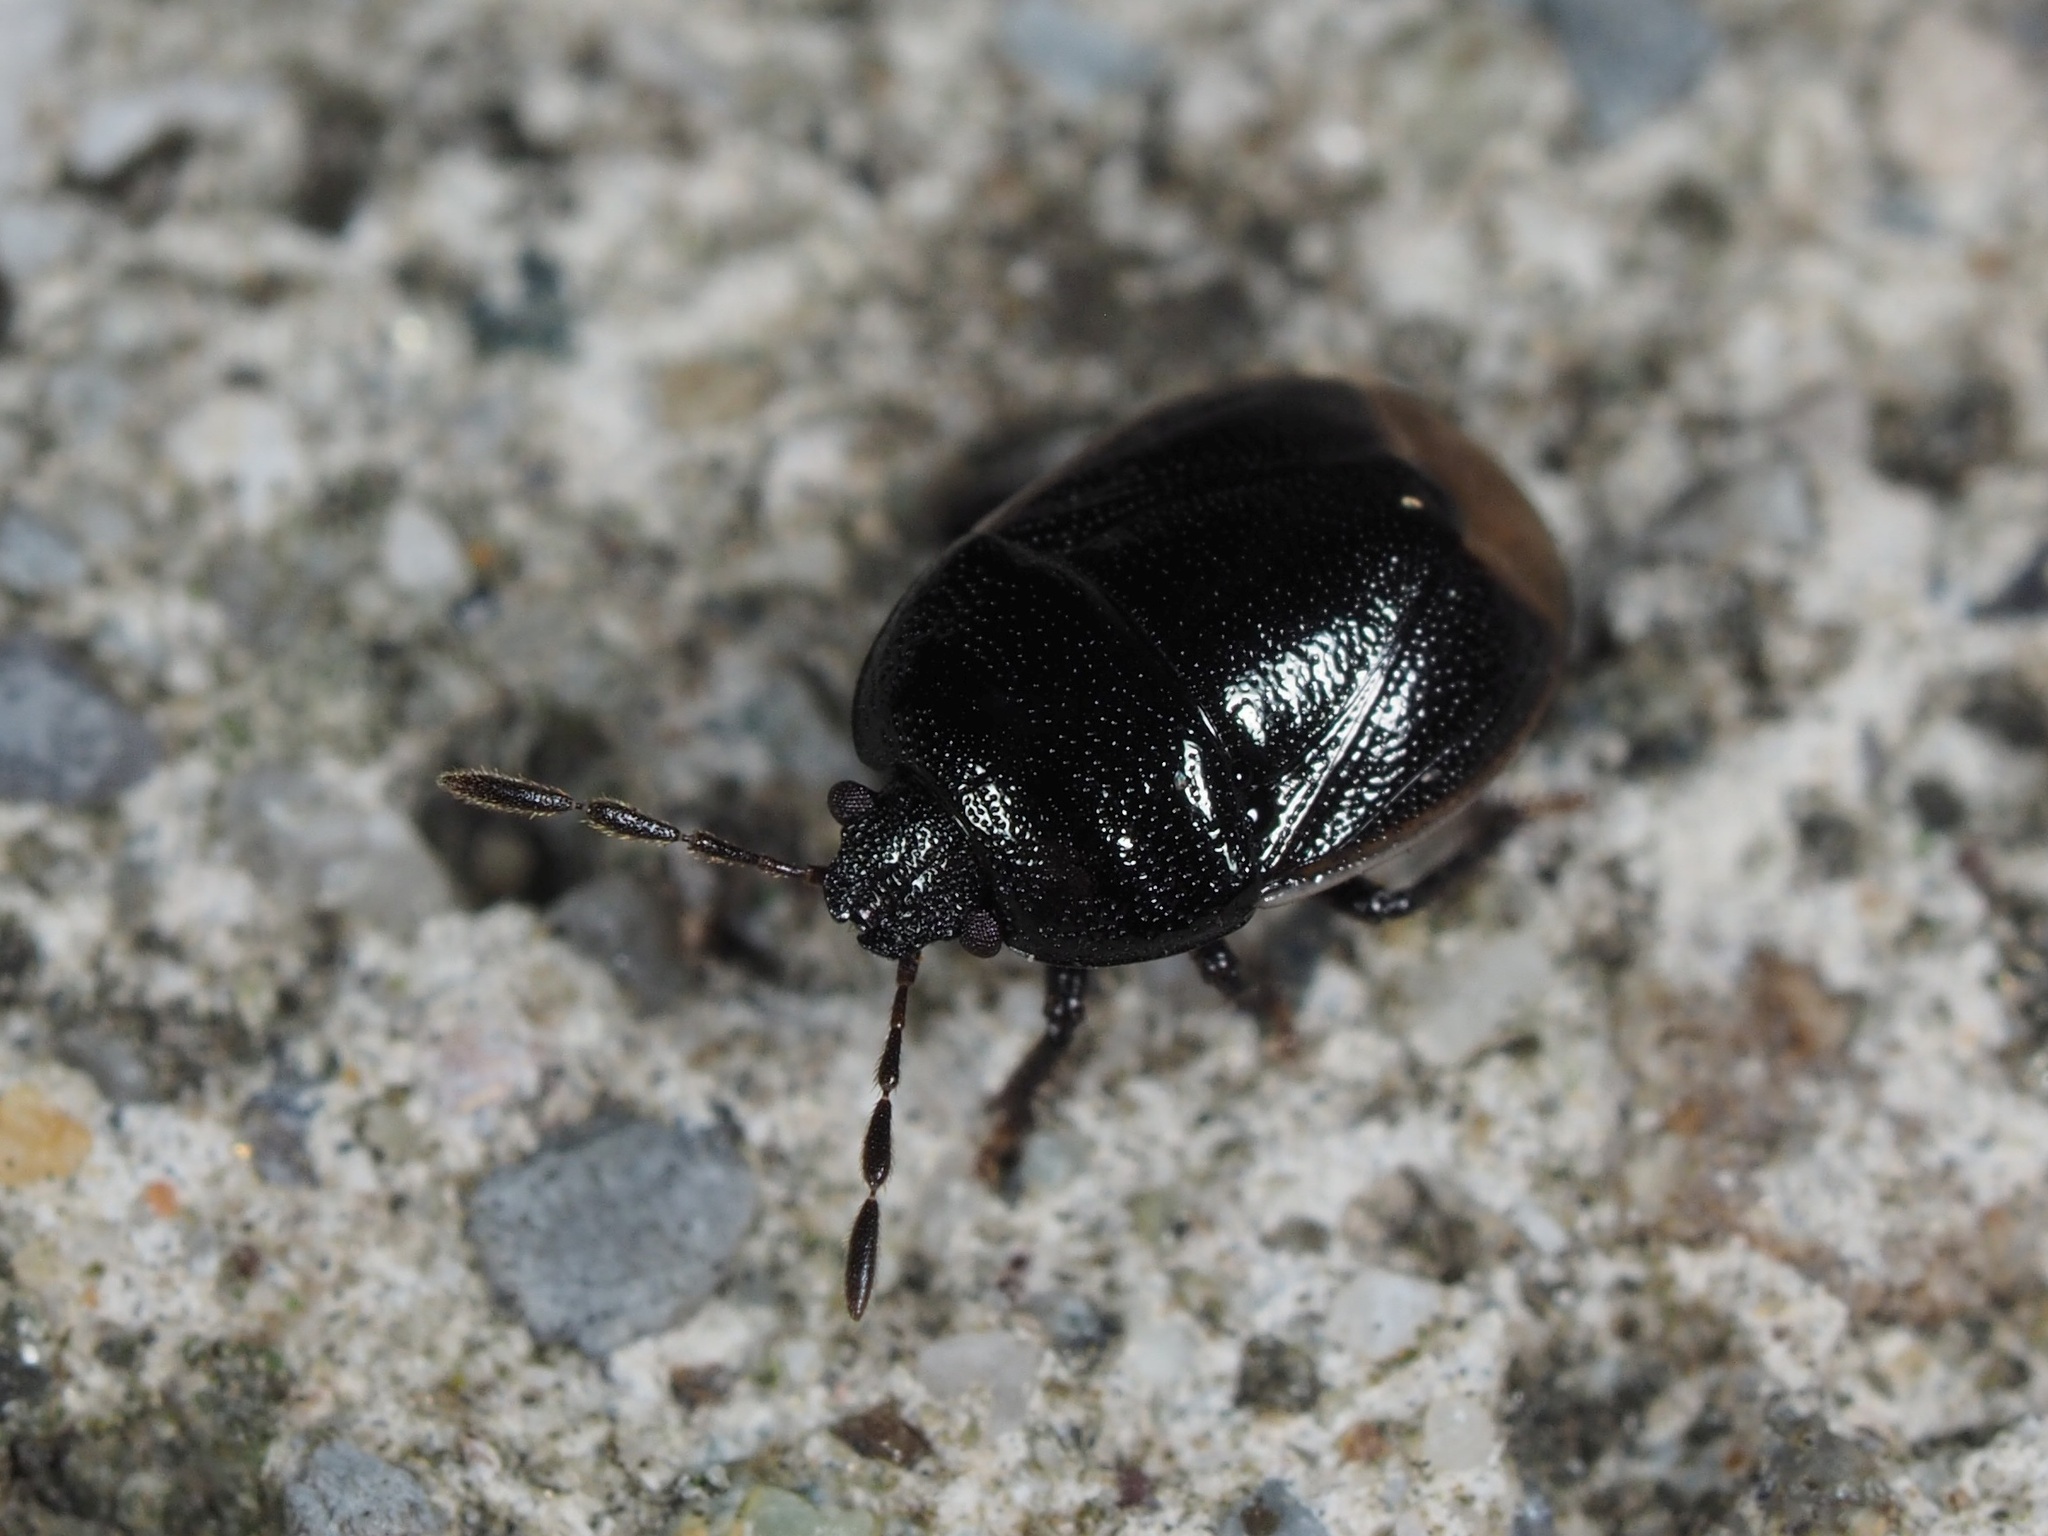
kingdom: Animalia
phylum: Arthropoda
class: Insecta
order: Hemiptera
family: Cydnidae
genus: Legnotus
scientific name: Legnotus limbosus
